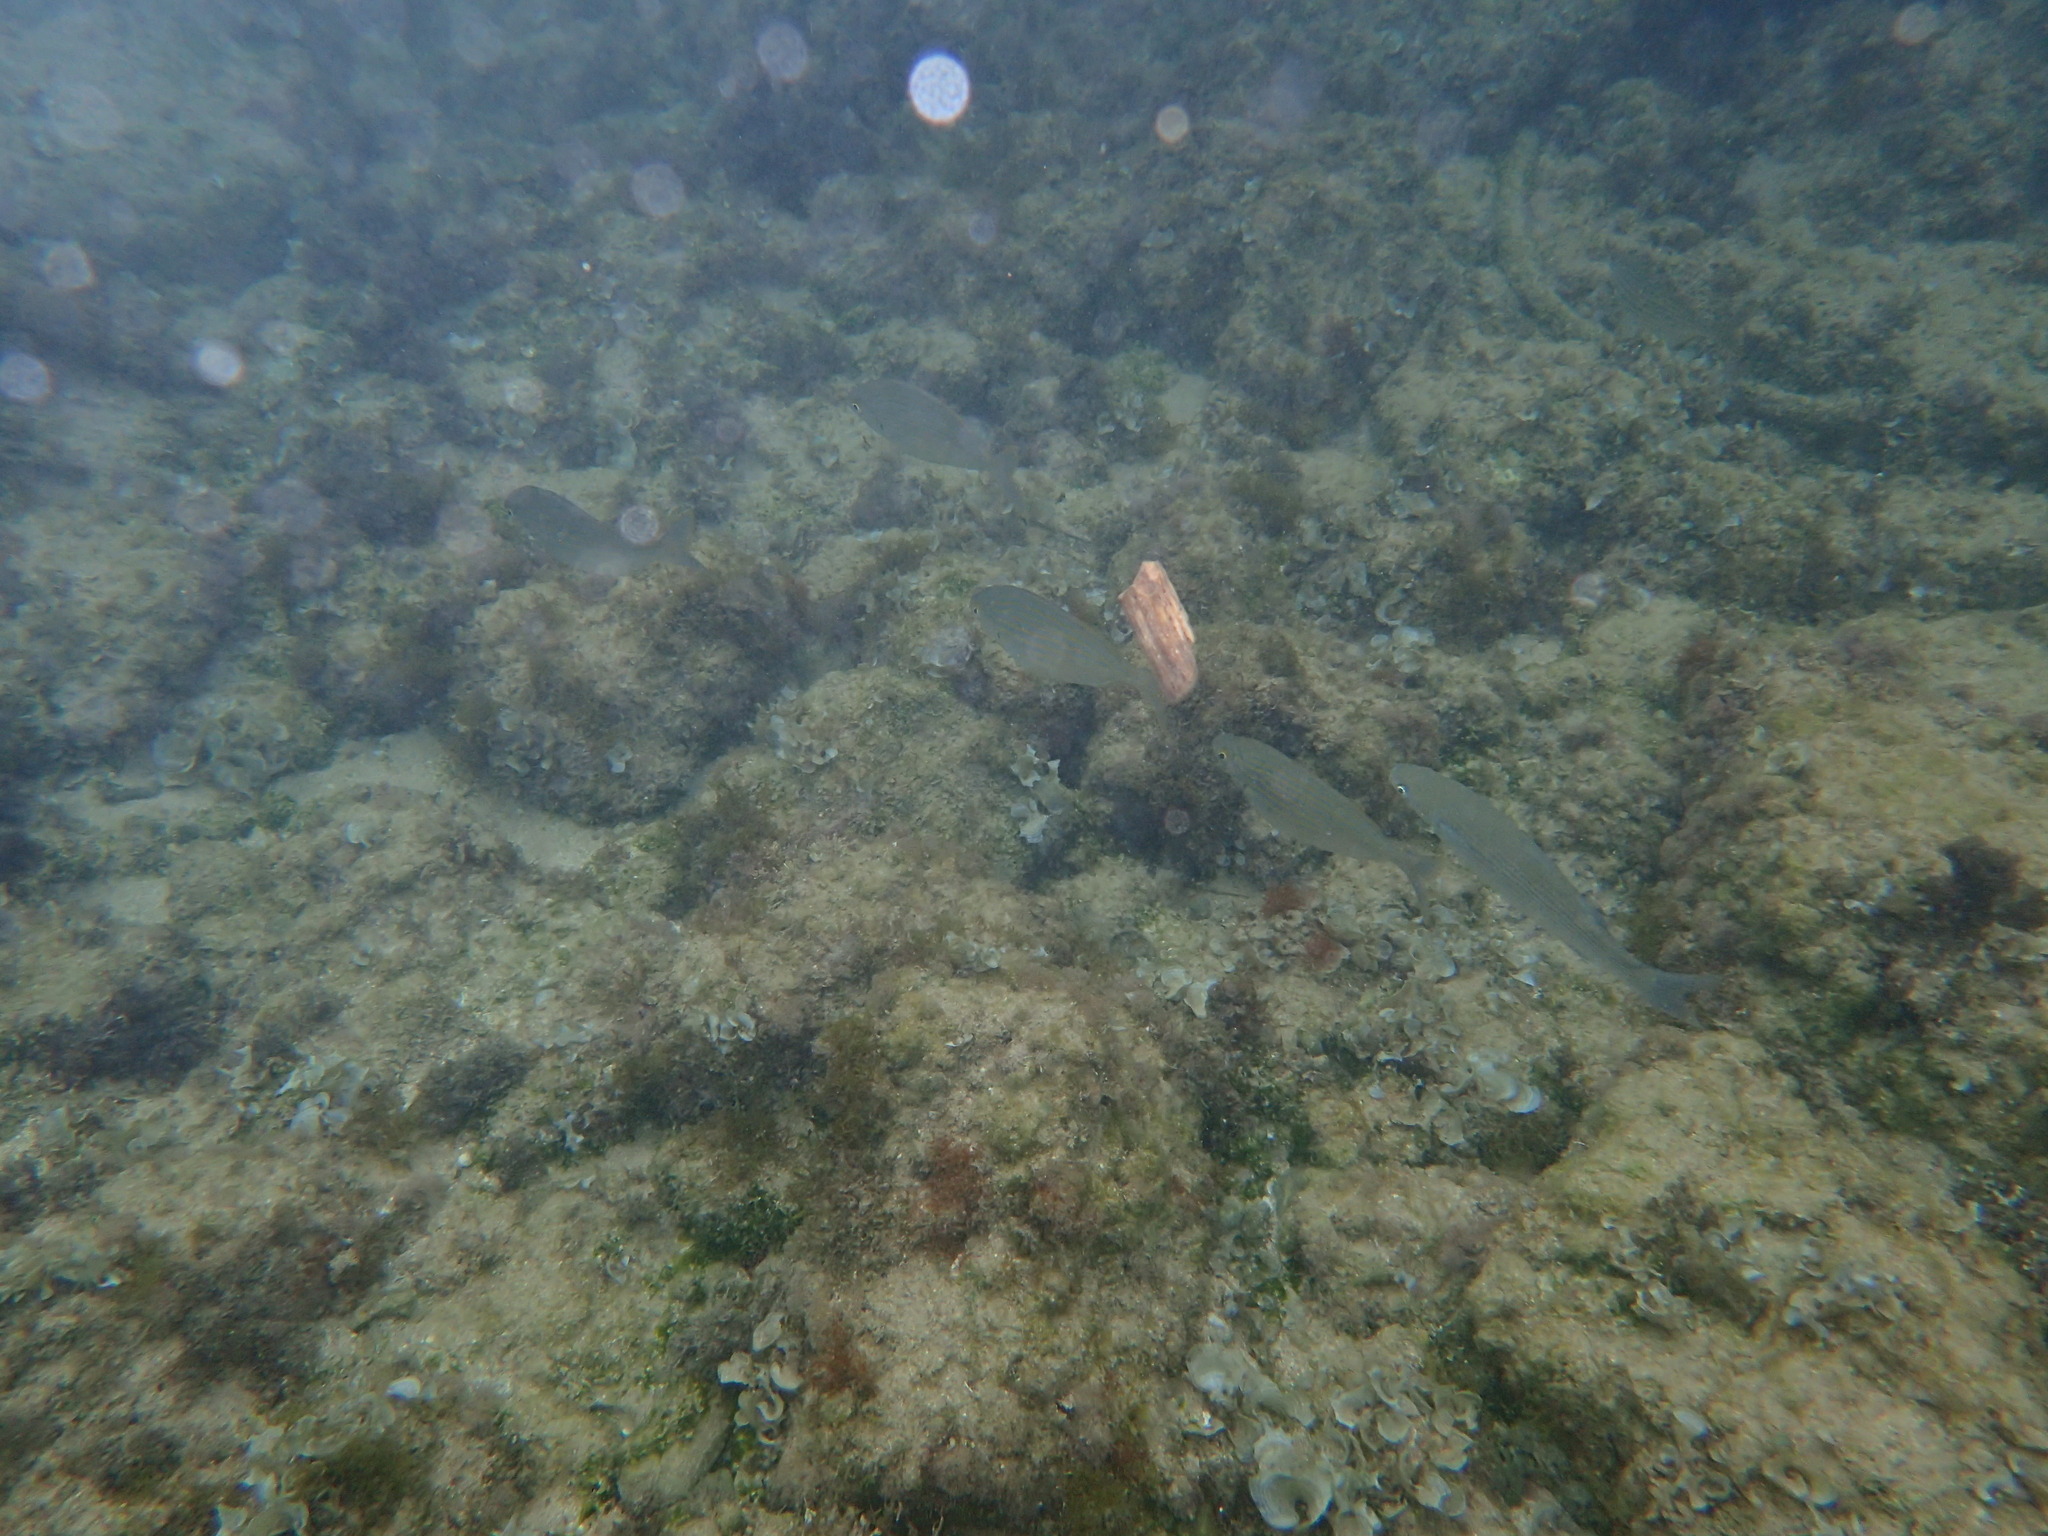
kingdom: Animalia
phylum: Chordata
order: Perciformes
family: Sparidae
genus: Sarpa
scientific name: Sarpa salpa
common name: Salema
